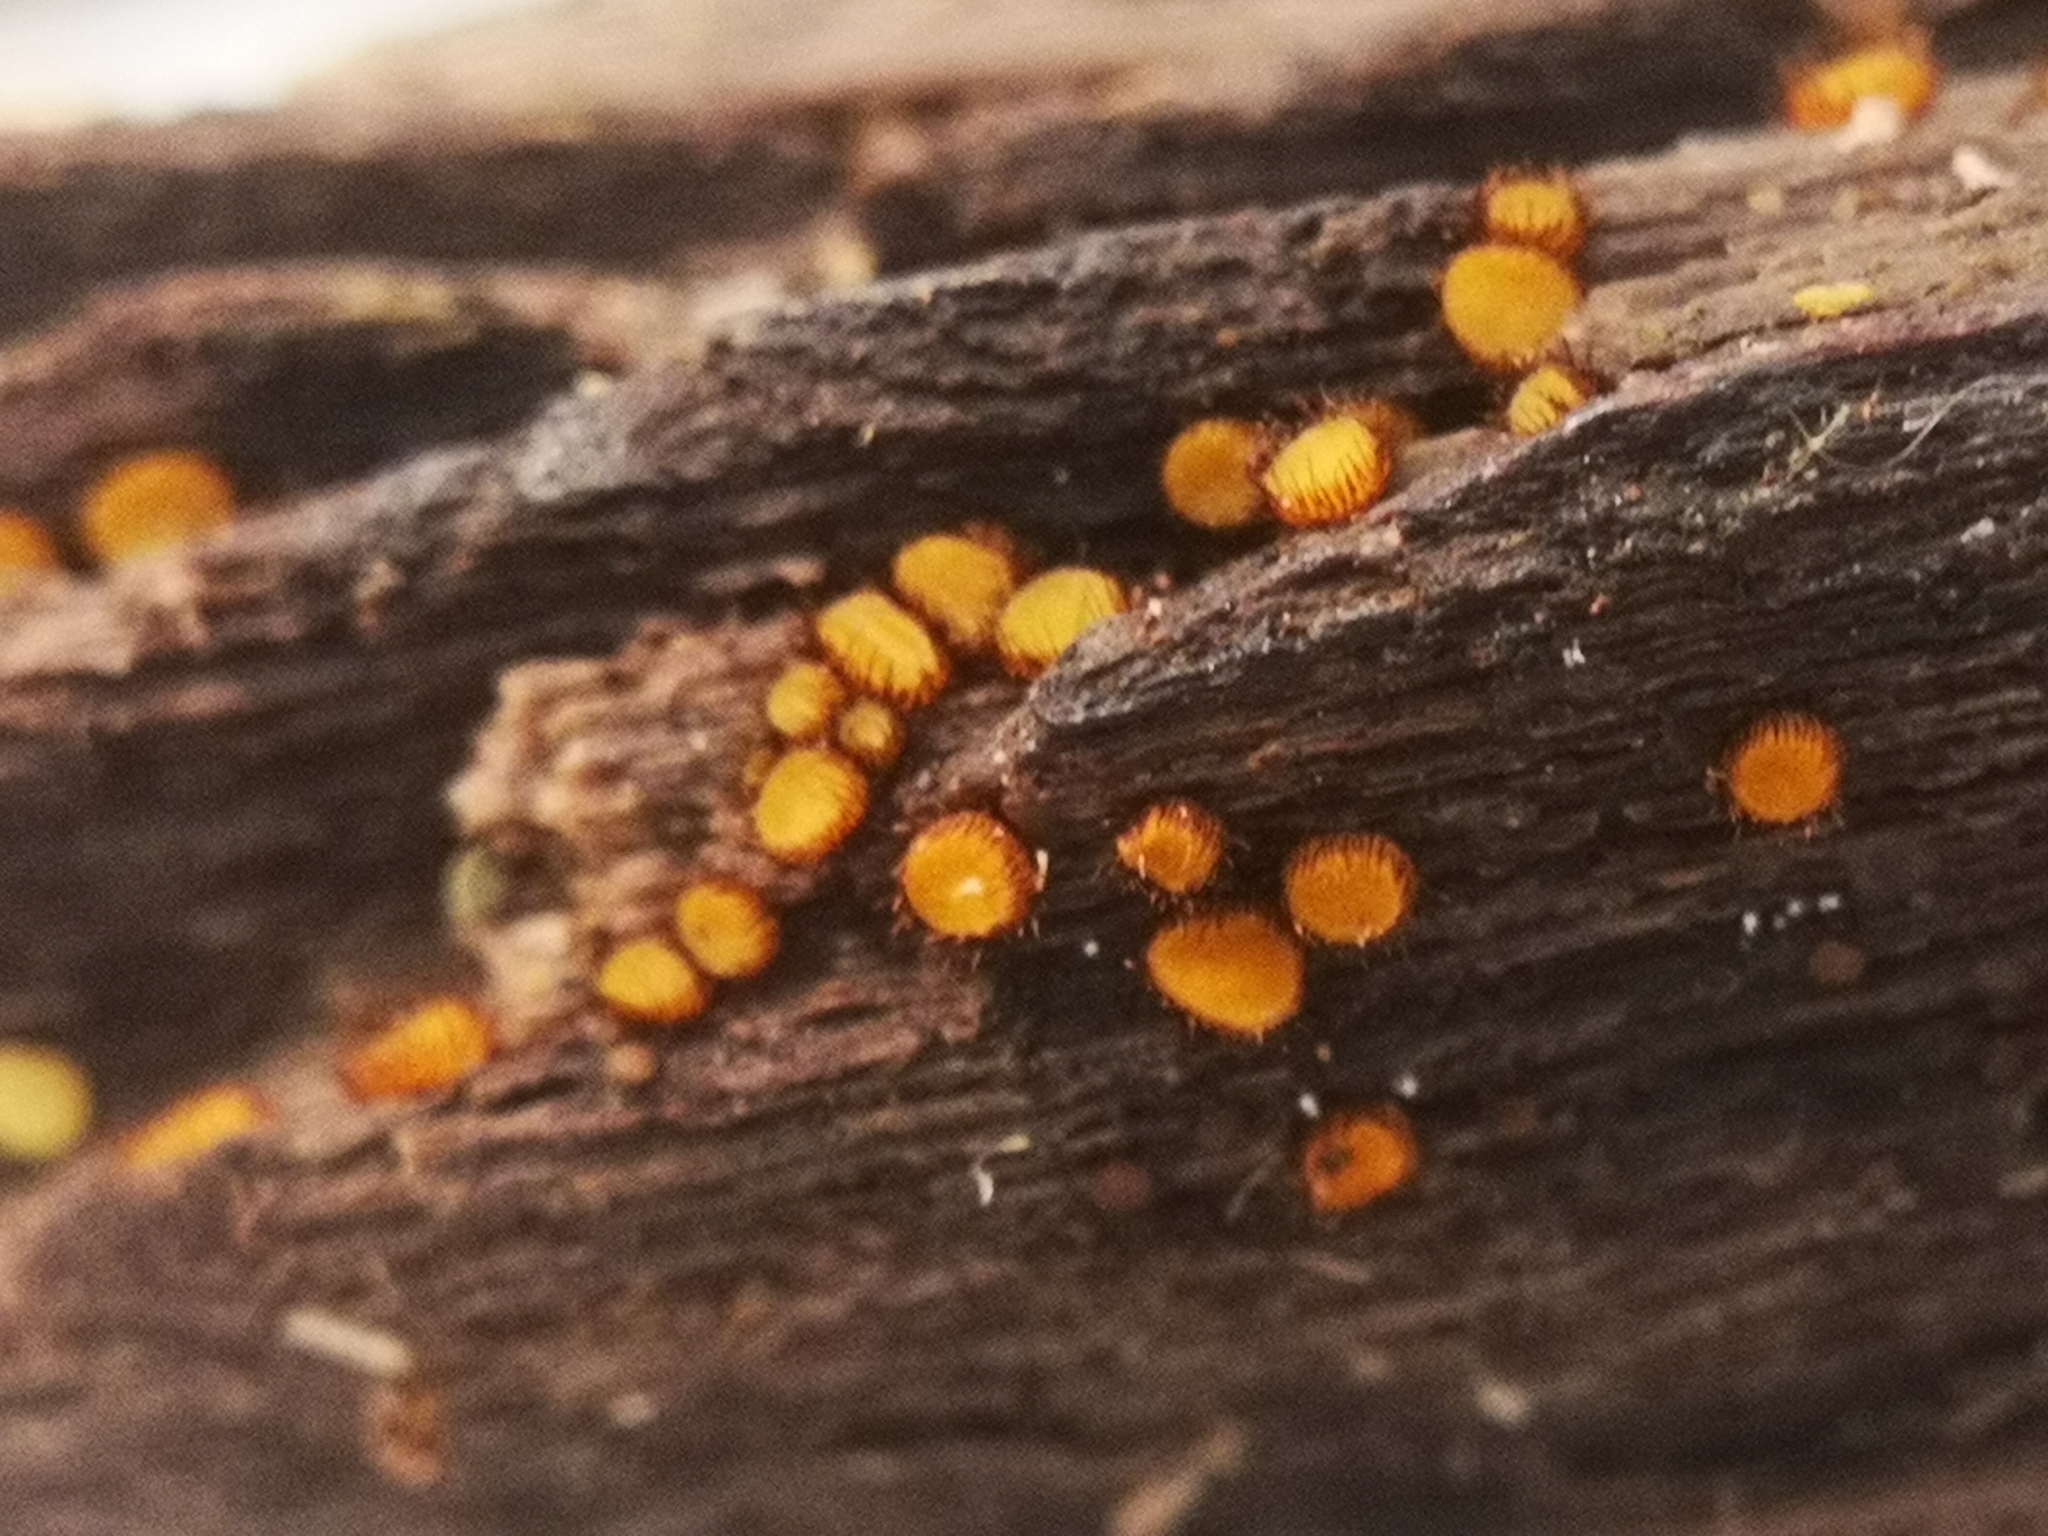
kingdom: Fungi
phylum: Ascomycota
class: Pezizomycetes
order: Pezizales
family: Pyronemataceae
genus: Scutellinia
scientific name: Scutellinia setosa
